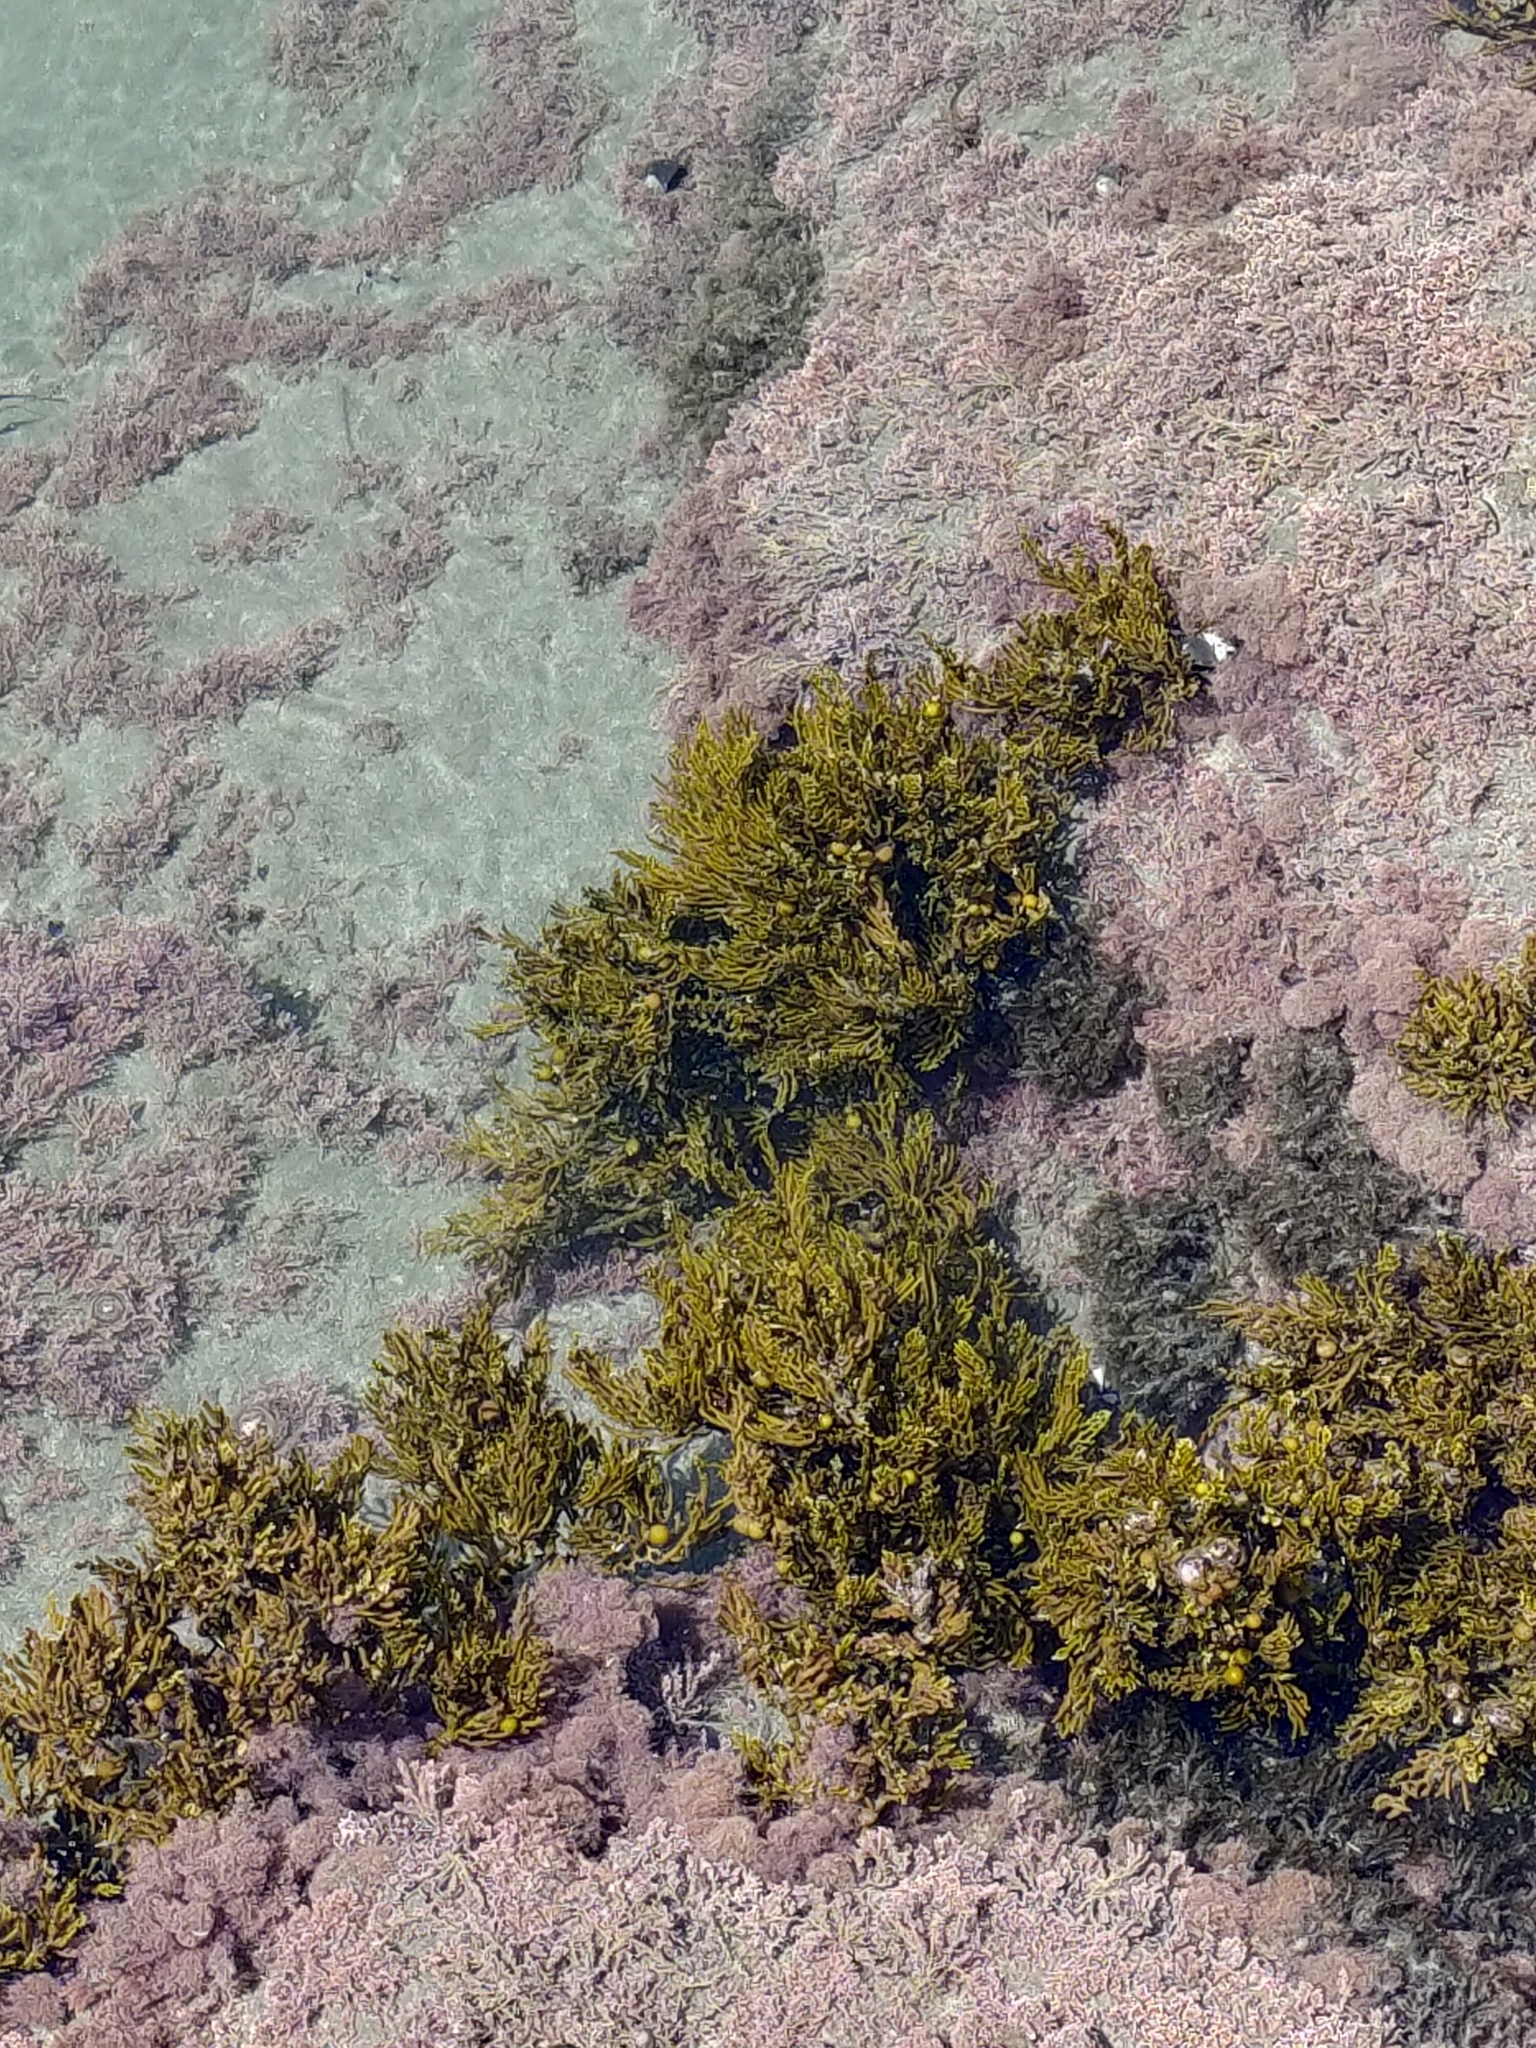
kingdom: Chromista
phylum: Ochrophyta
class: Phaeophyceae
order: Fucales
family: Sargassaceae
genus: Cystophora
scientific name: Cystophora scalaris
